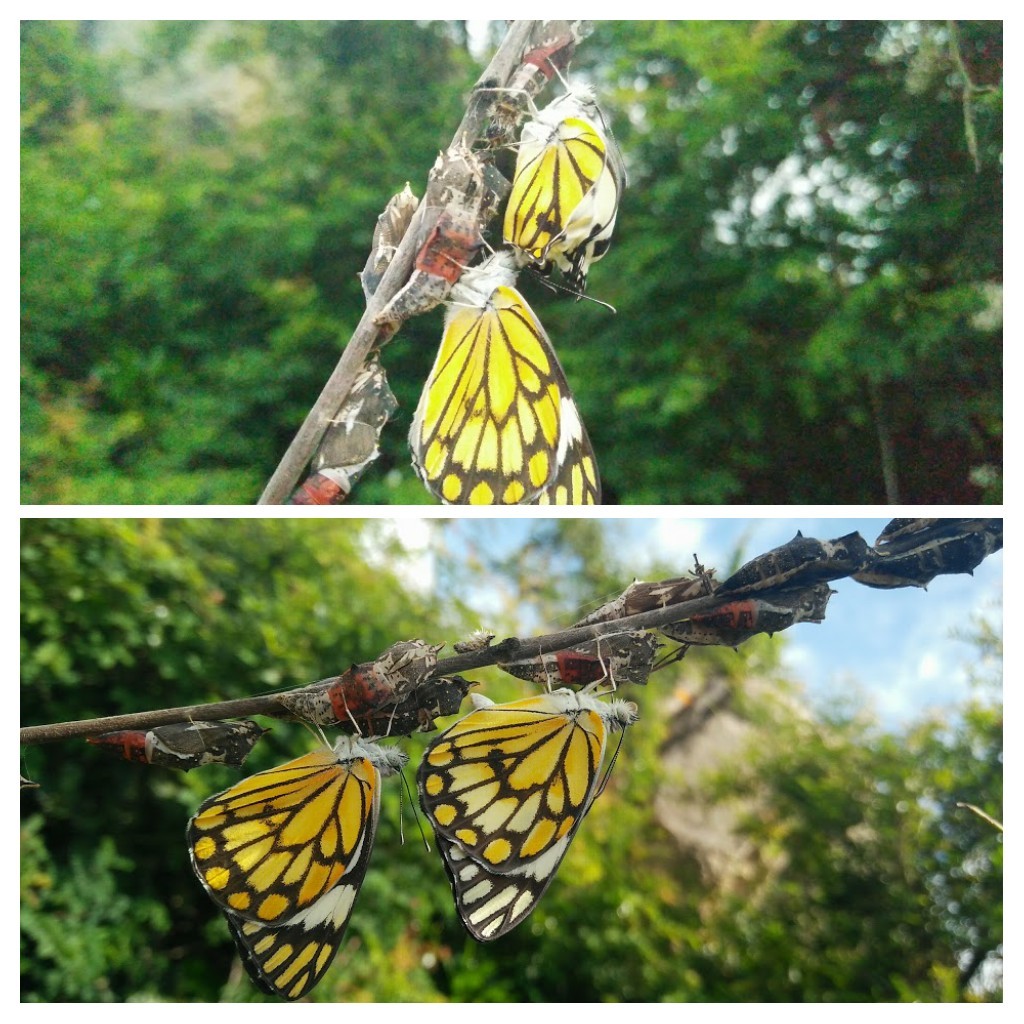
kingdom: Animalia
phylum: Arthropoda
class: Insecta
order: Lepidoptera
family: Pieridae
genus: Belenois
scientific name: Belenois aurota
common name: Brown-veined white
